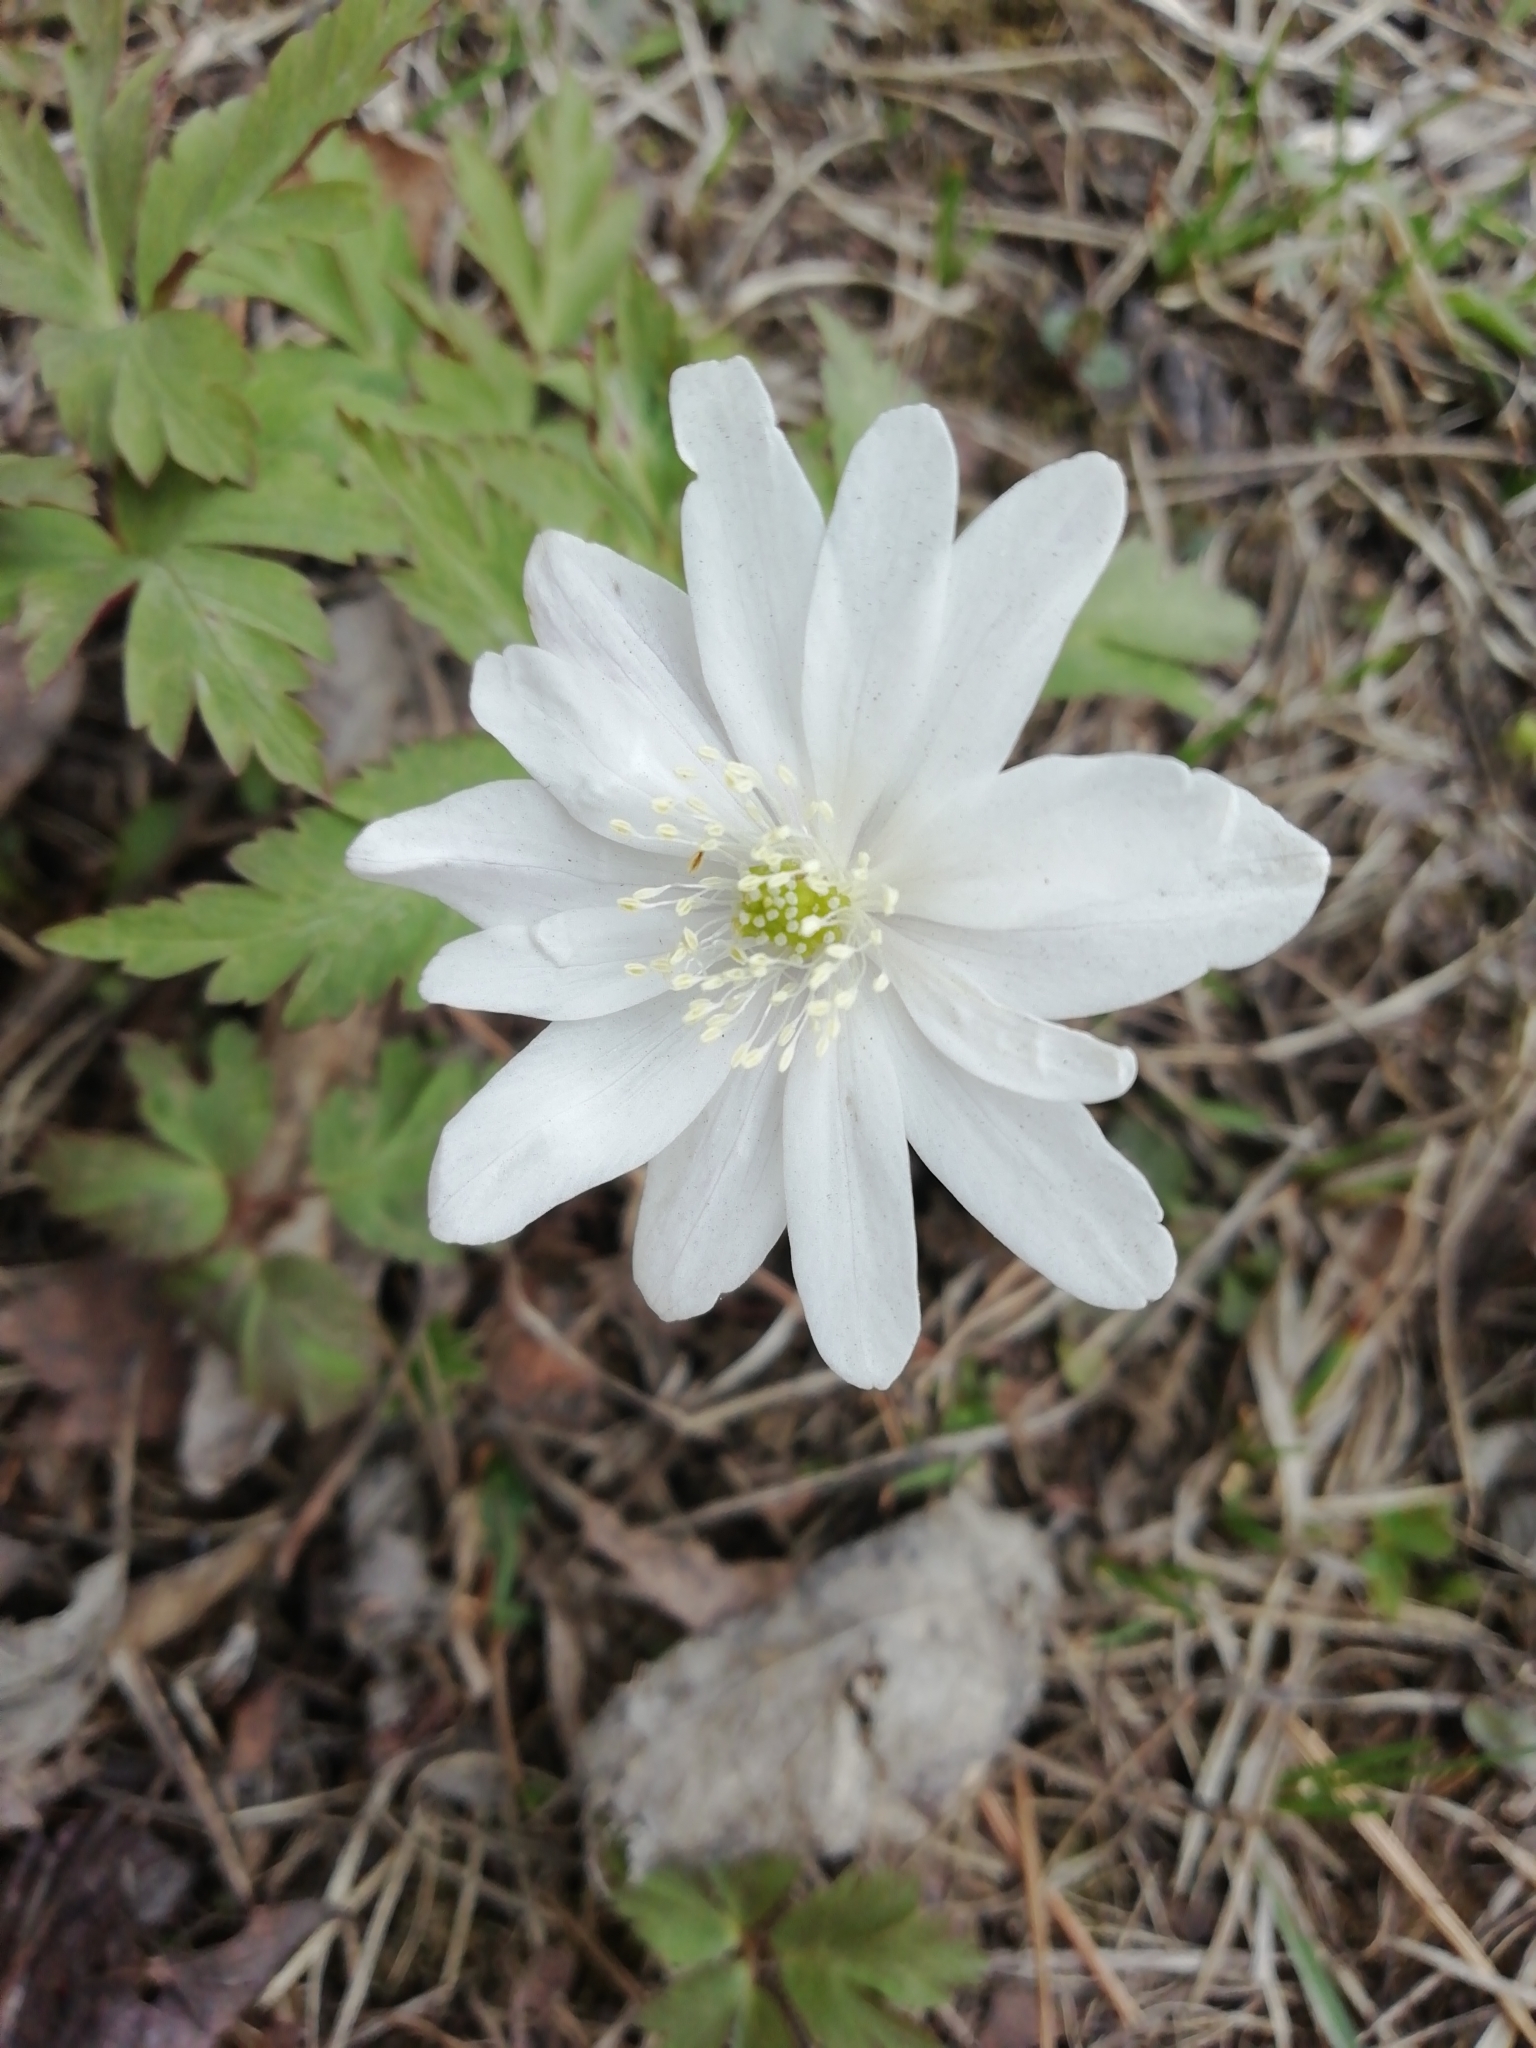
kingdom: Plantae
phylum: Tracheophyta
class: Magnoliopsida
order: Ranunculales
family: Ranunculaceae
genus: Anemone
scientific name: Anemone altaica
